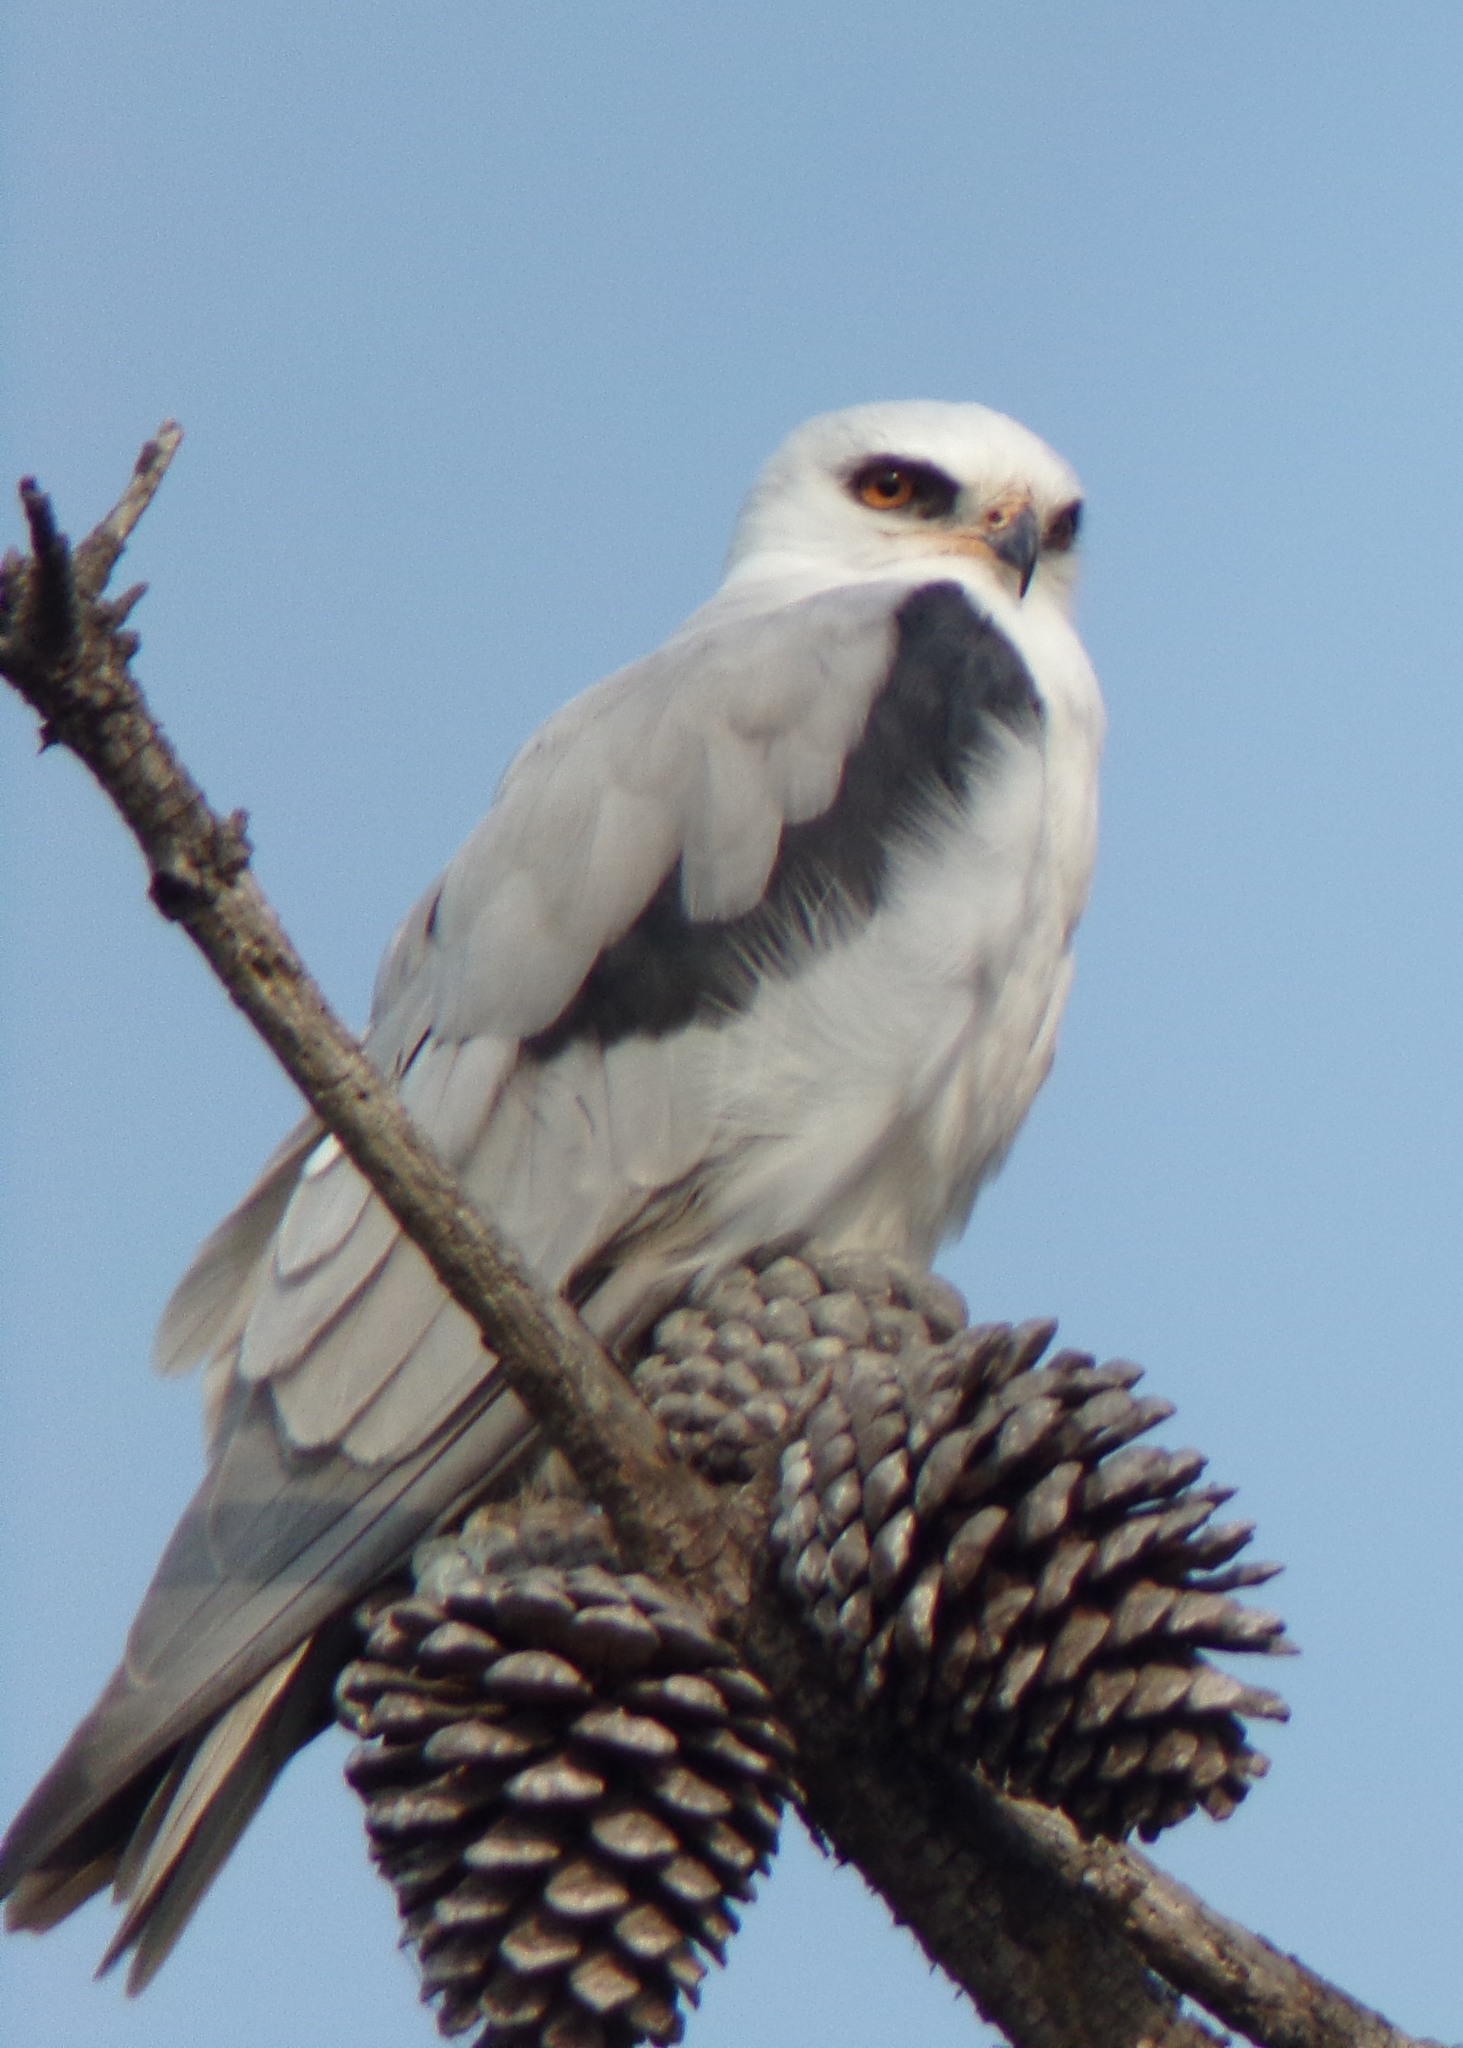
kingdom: Animalia
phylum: Chordata
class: Aves
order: Accipitriformes
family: Accipitridae
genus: Elanus
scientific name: Elanus leucurus
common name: White-tailed kite
